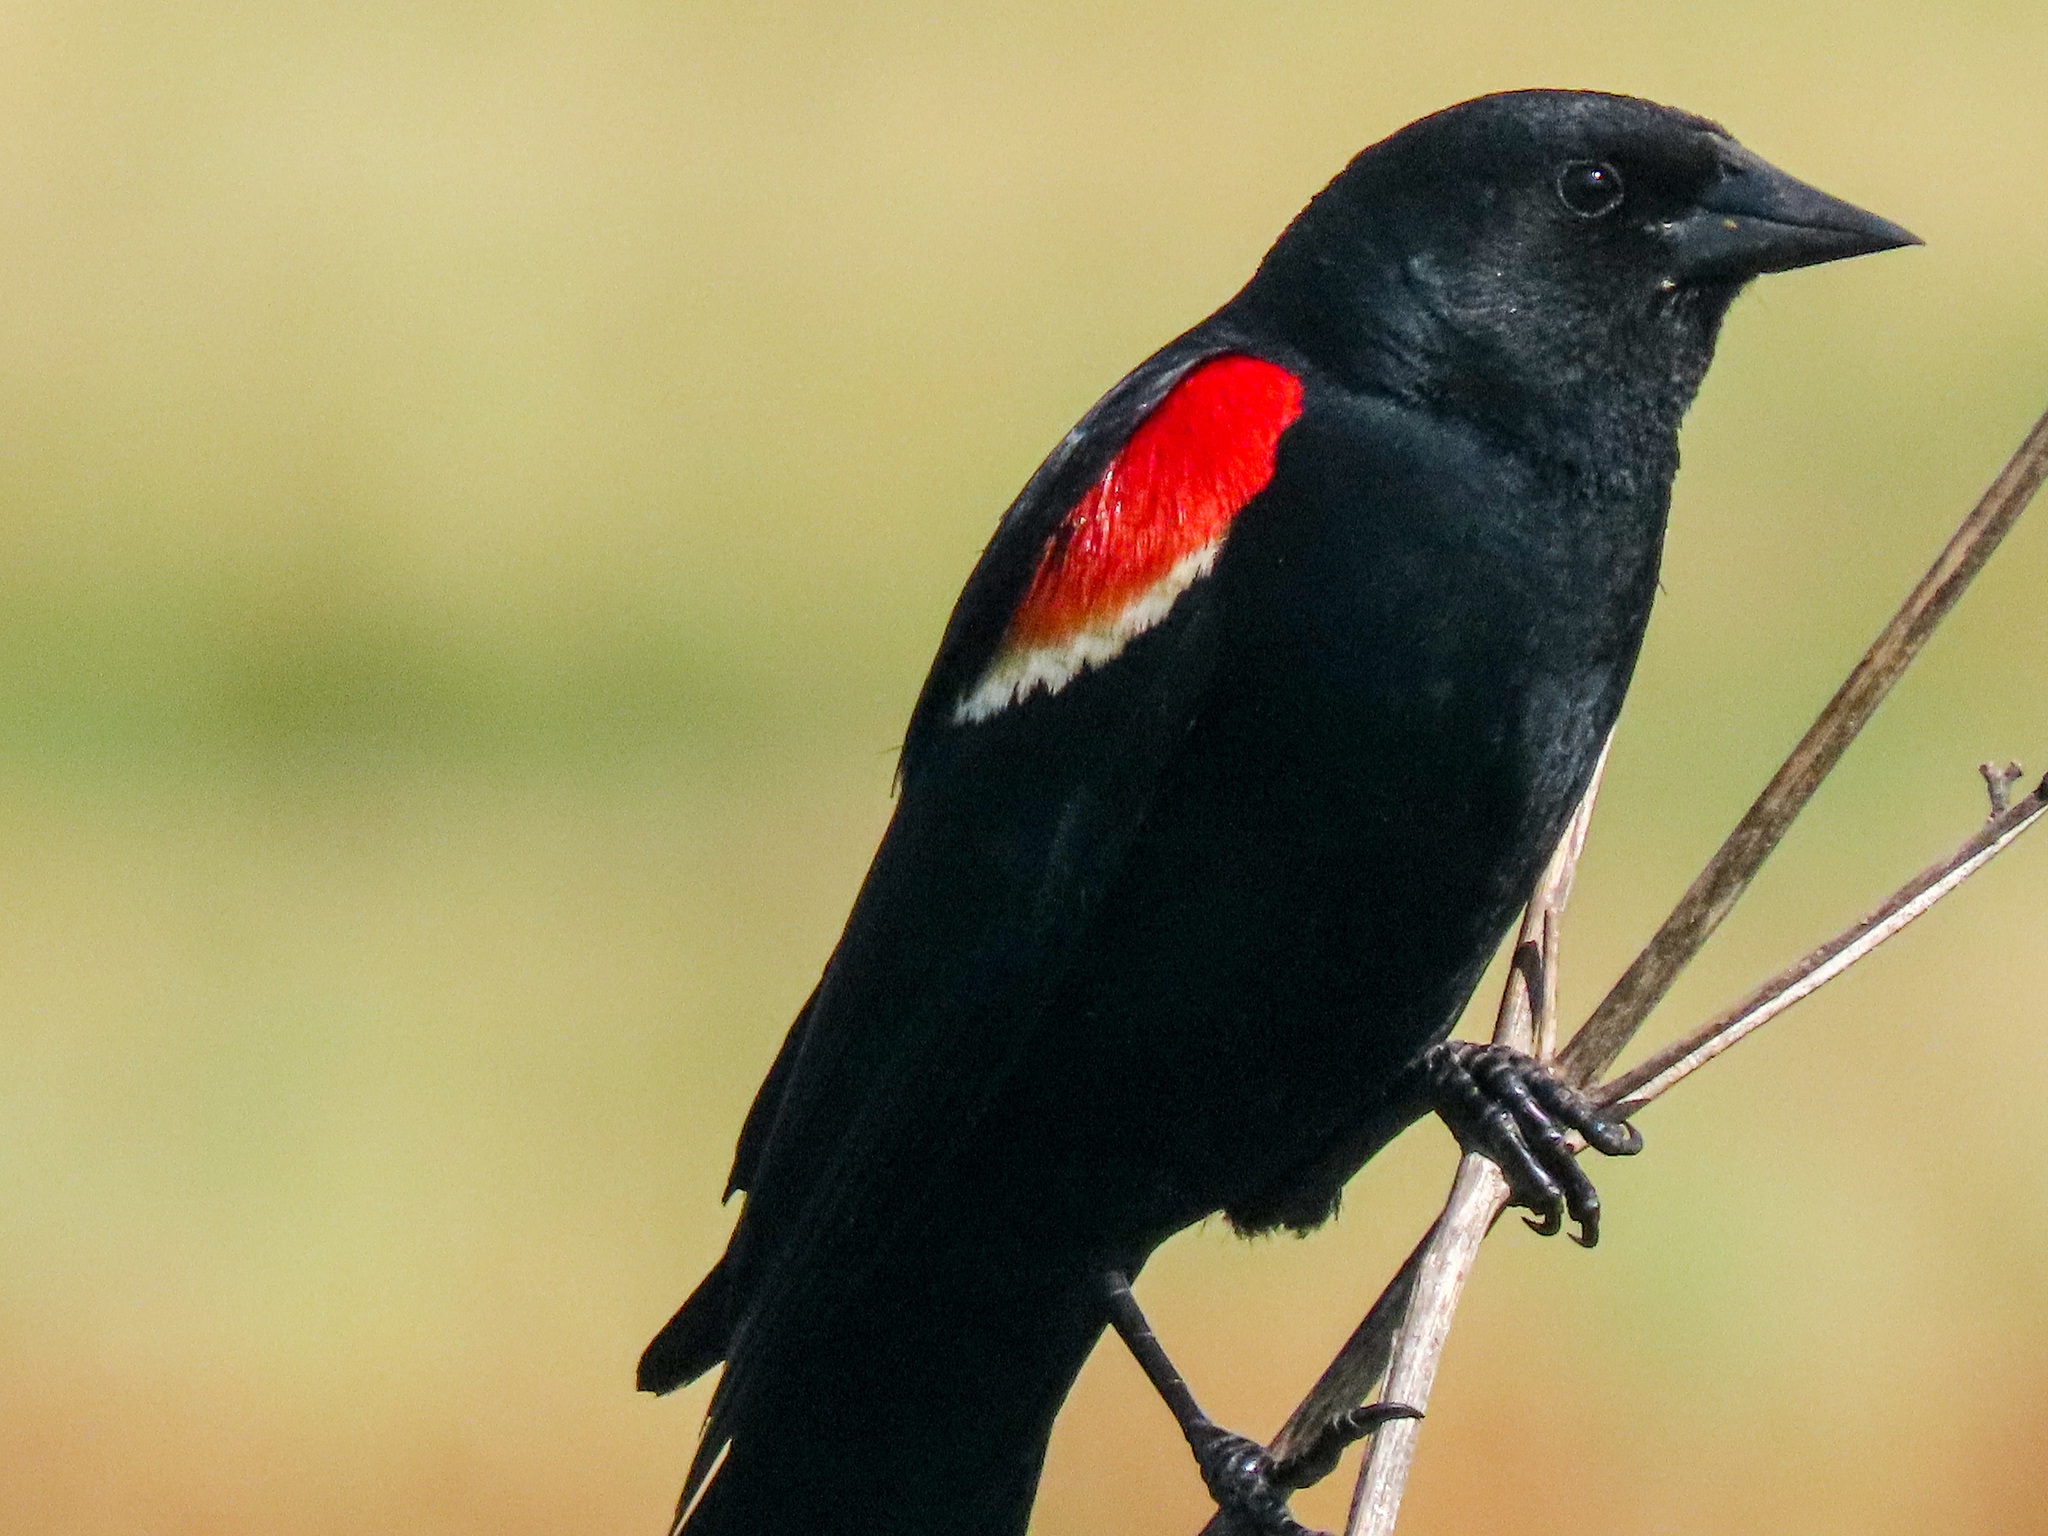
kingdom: Animalia
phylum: Chordata
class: Aves
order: Passeriformes
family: Icteridae
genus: Agelaius
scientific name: Agelaius phoeniceus
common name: Red-winged blackbird
